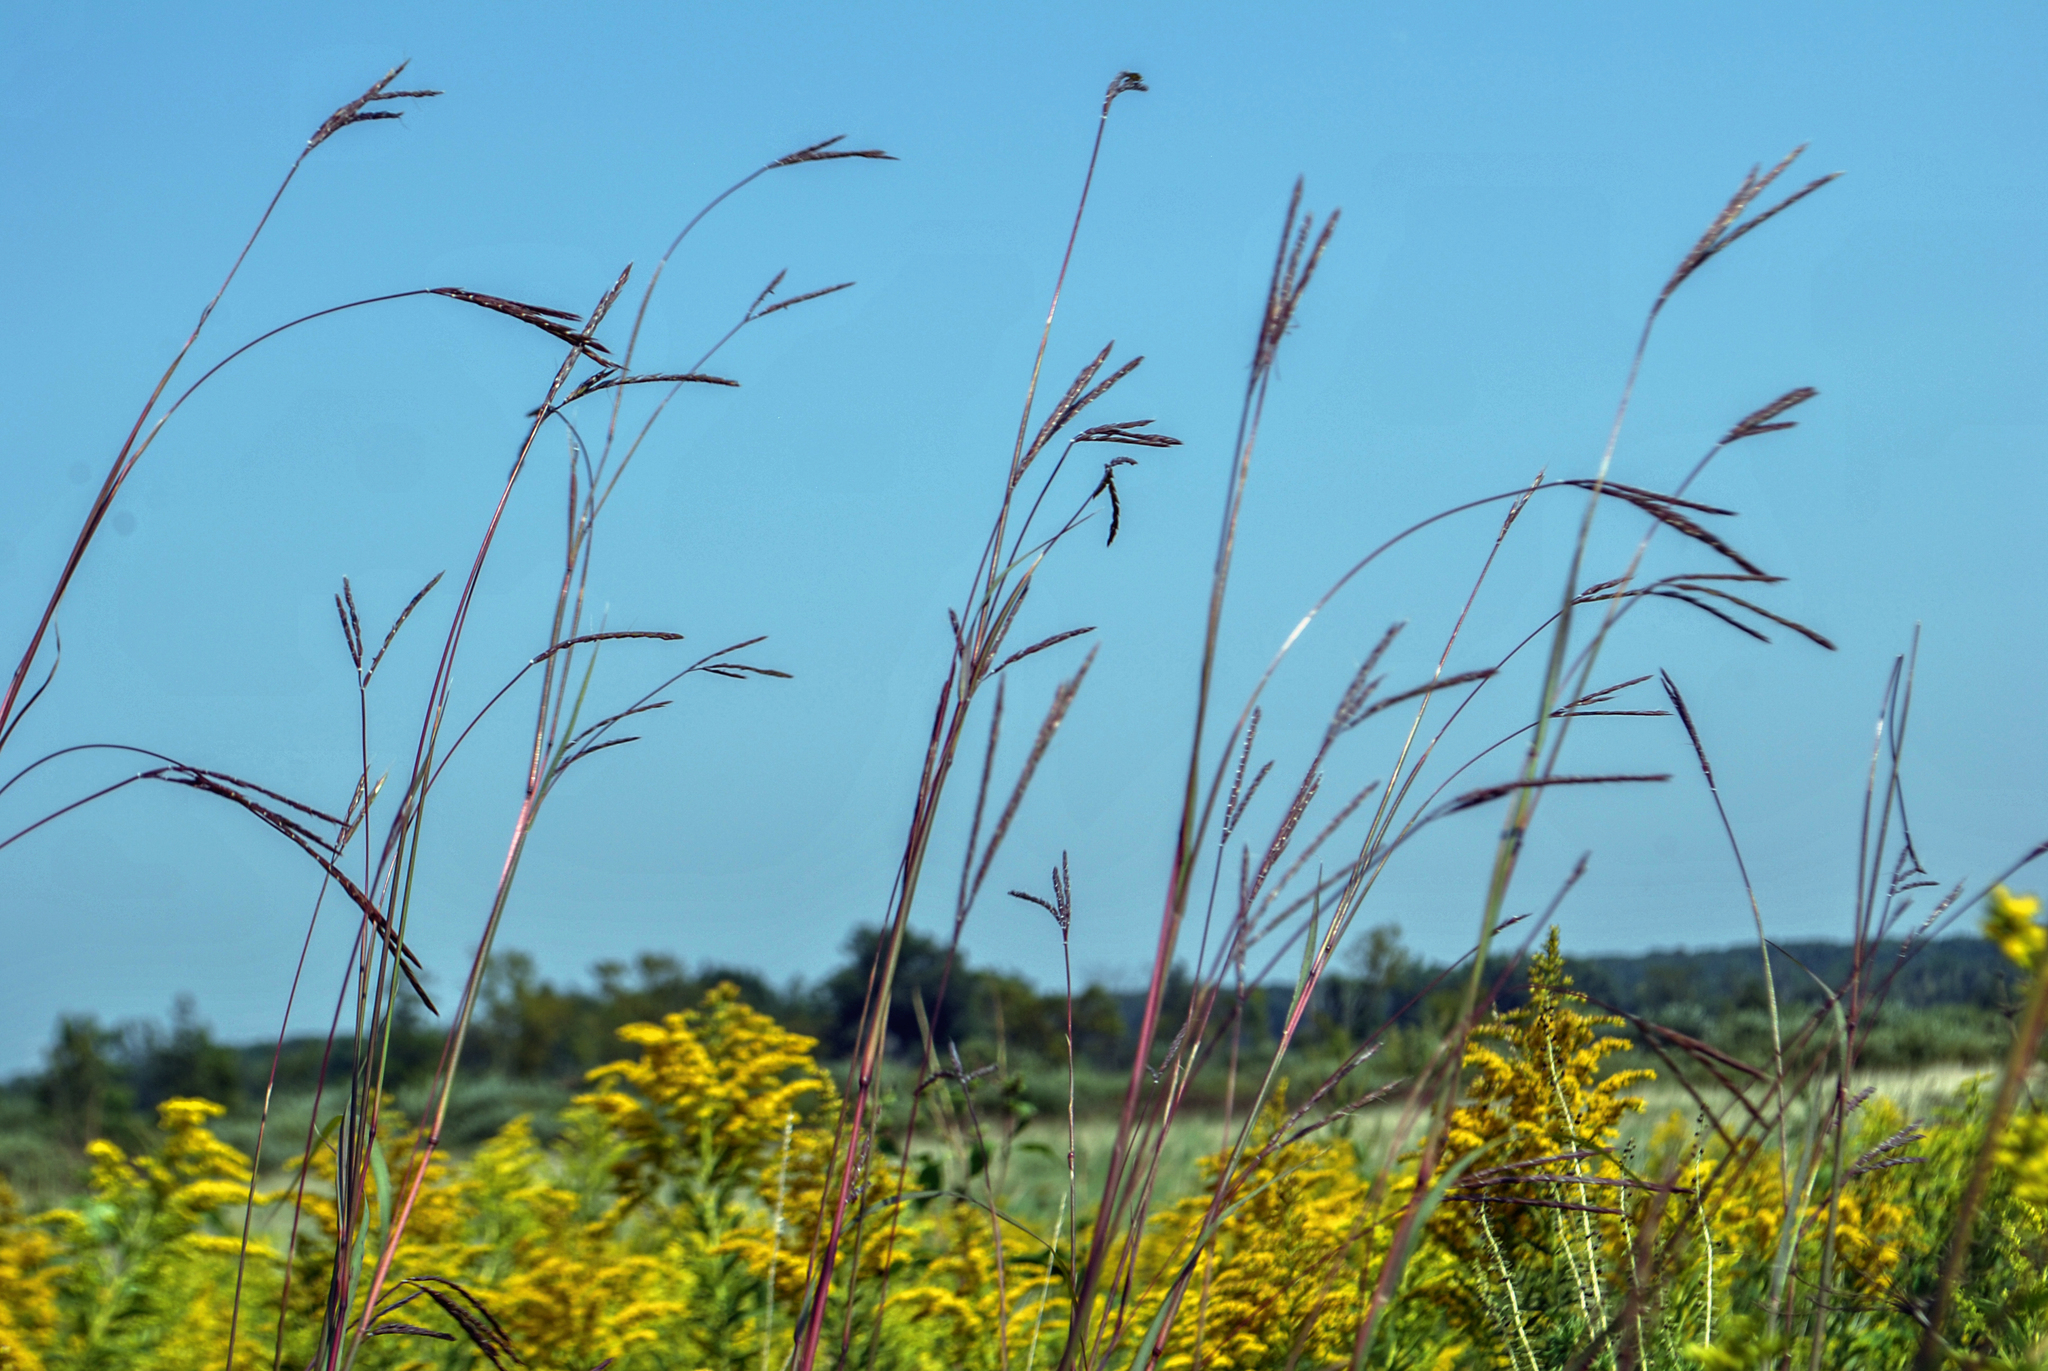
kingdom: Plantae
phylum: Tracheophyta
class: Liliopsida
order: Poales
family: Poaceae
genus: Andropogon
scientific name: Andropogon gerardi
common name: Big bluestem
